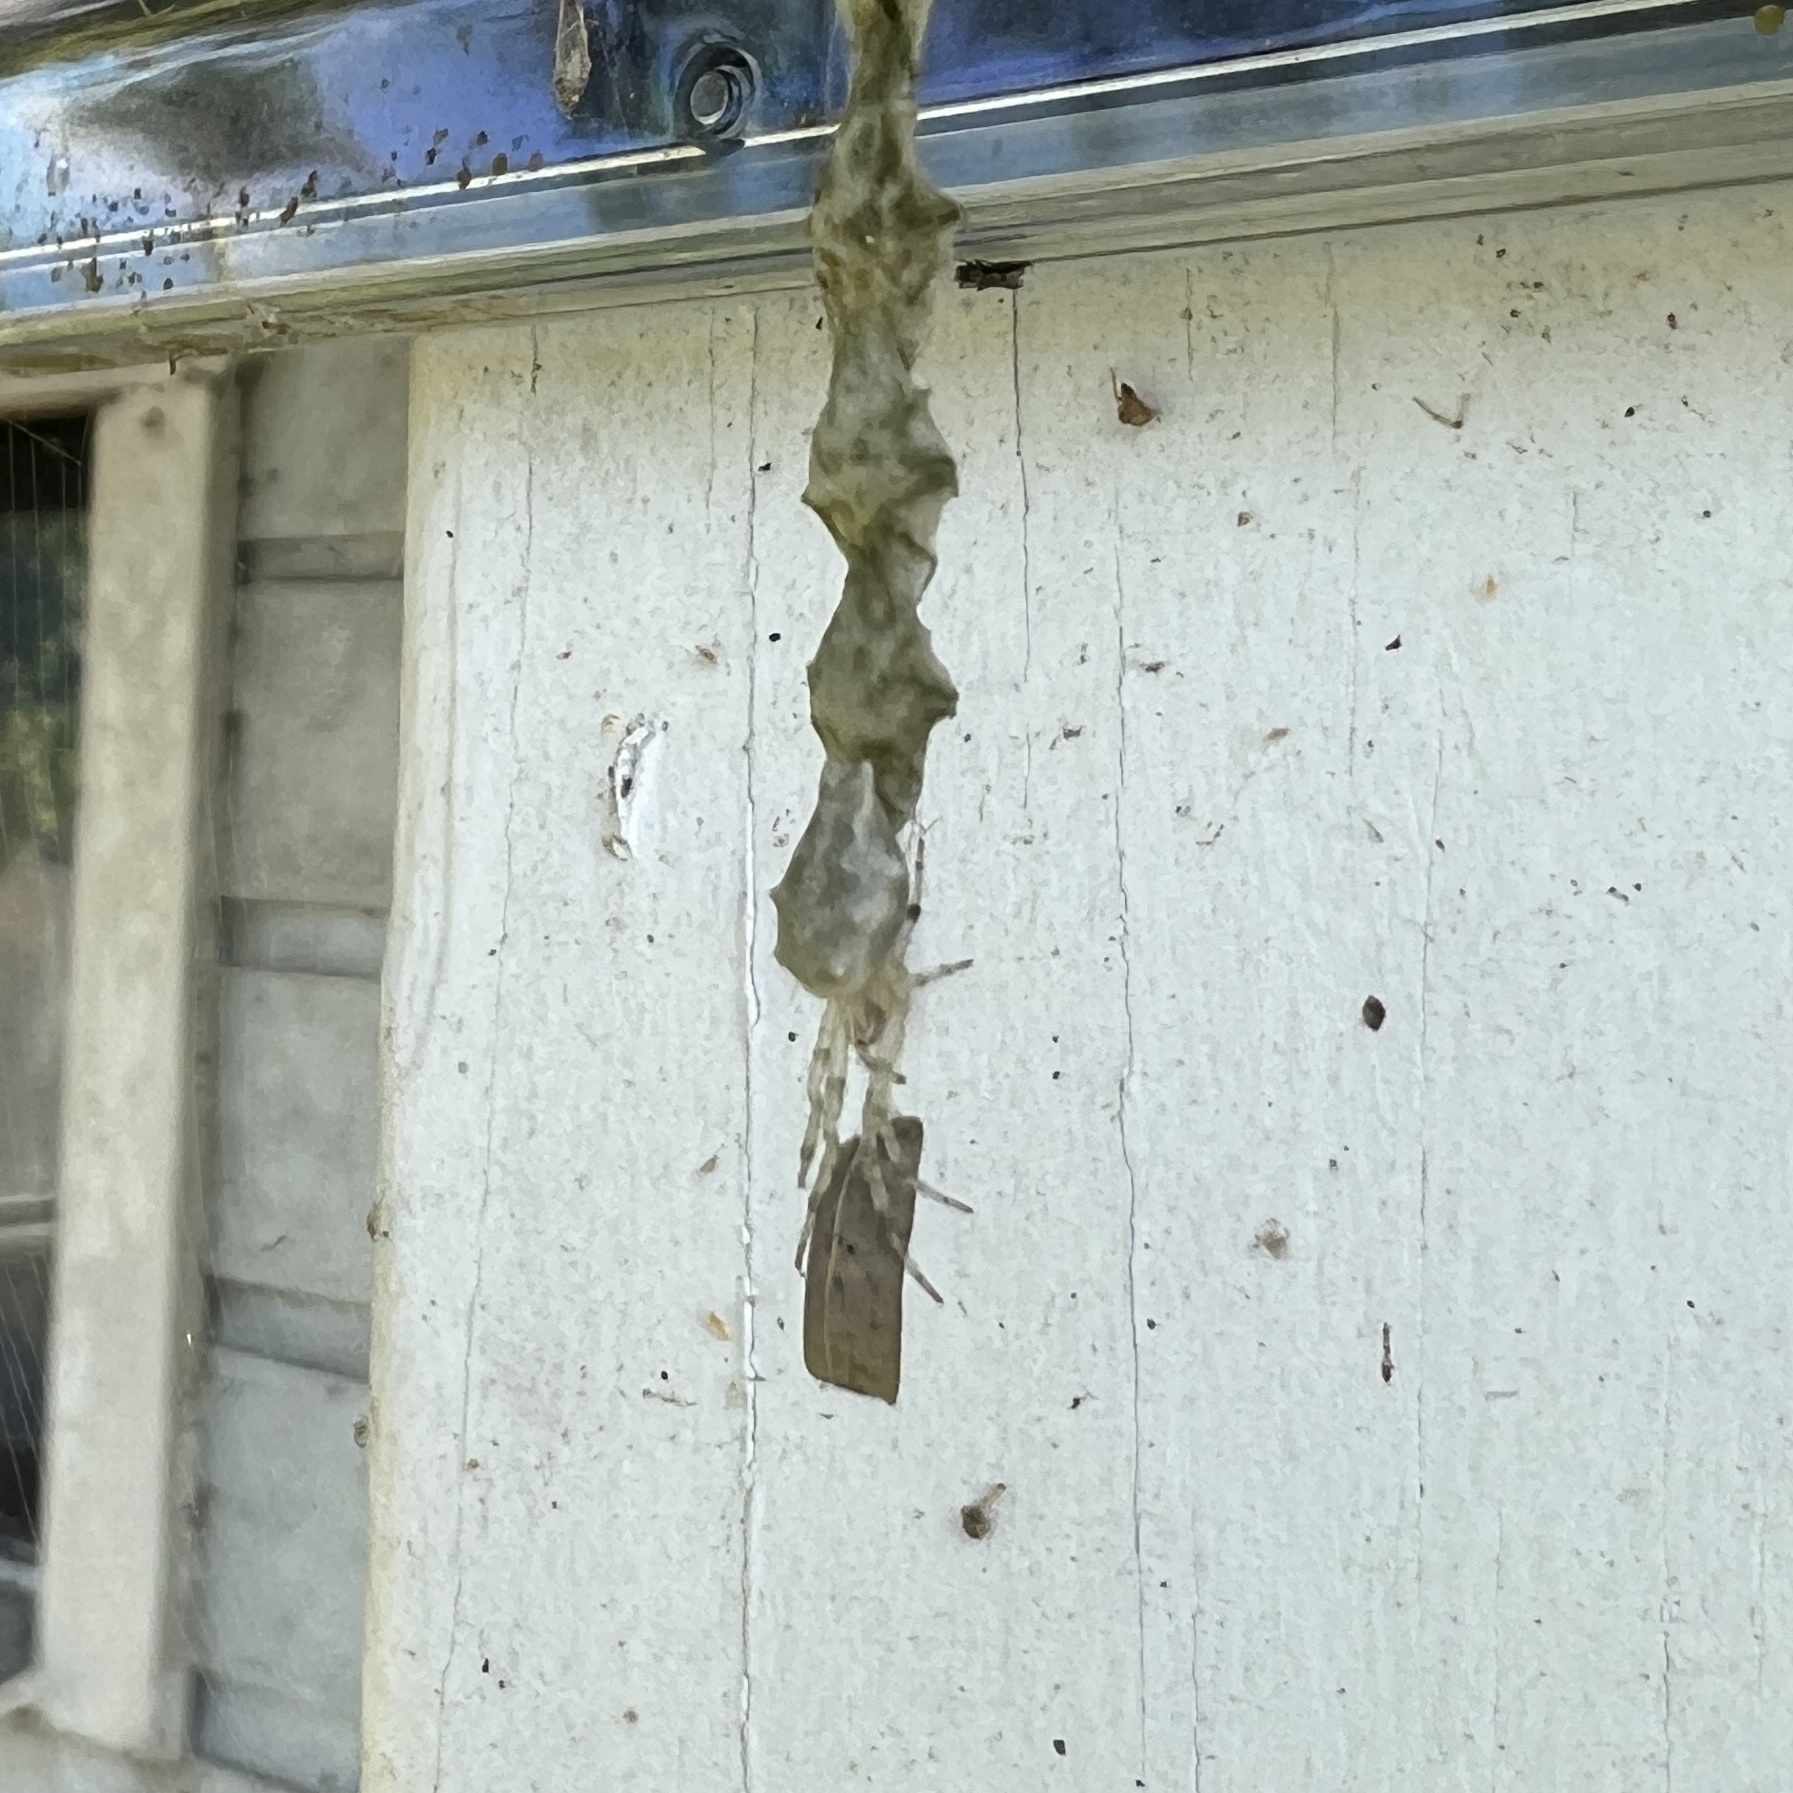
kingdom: Animalia
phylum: Arthropoda
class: Arachnida
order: Araneae
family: Araneidae
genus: Allocyclosa
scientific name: Allocyclosa bifurca
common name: Orb weavers
